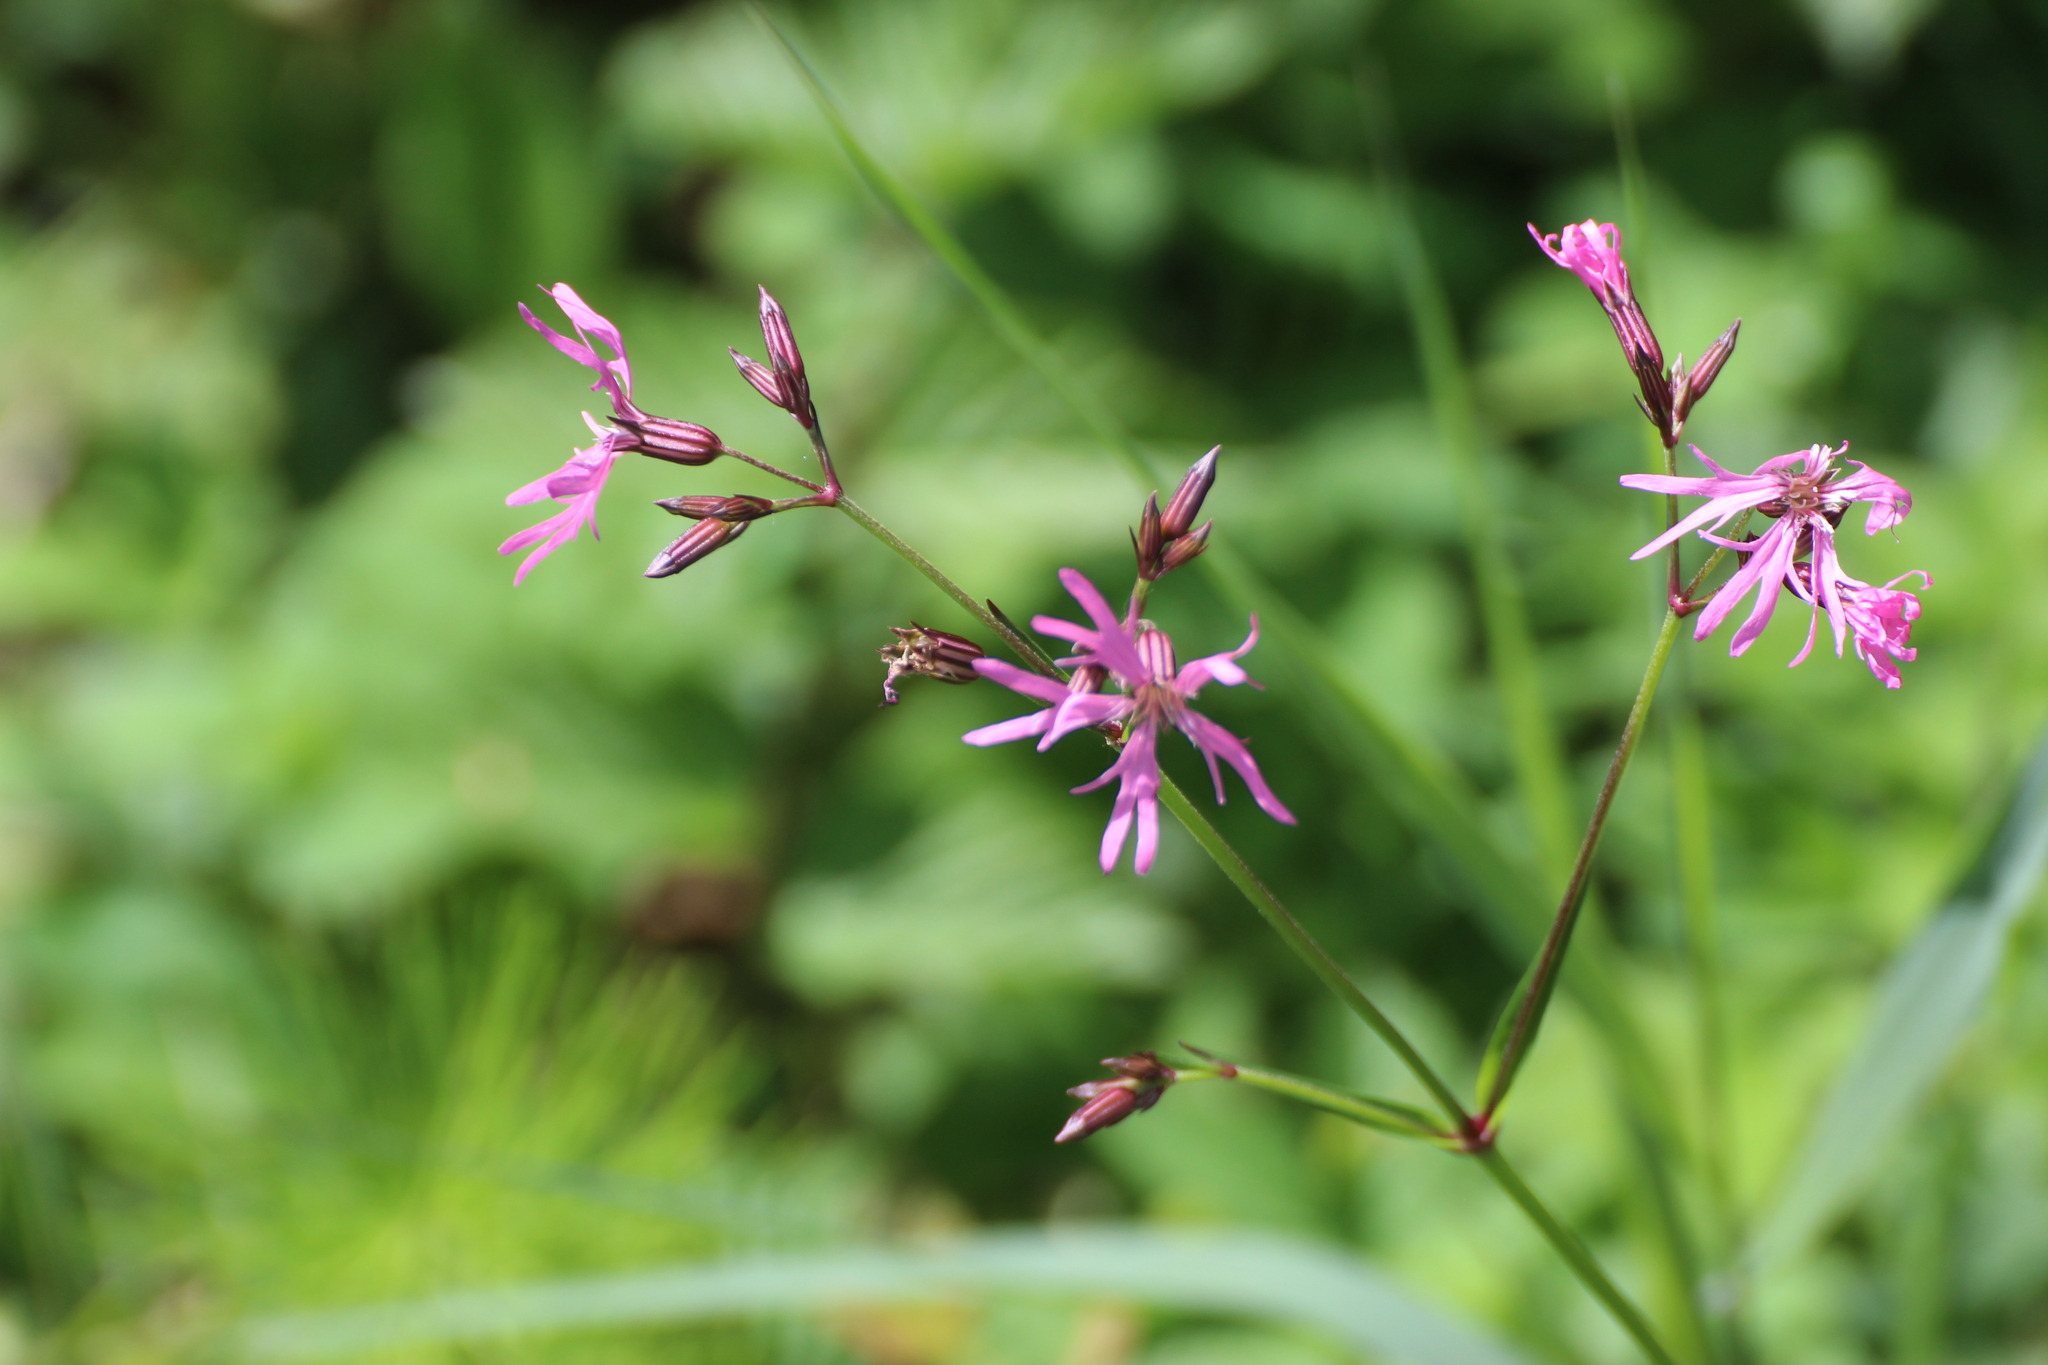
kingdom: Plantae
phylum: Tracheophyta
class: Magnoliopsida
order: Caryophyllales
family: Caryophyllaceae
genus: Silene
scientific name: Silene flos-cuculi
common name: Ragged-robin
